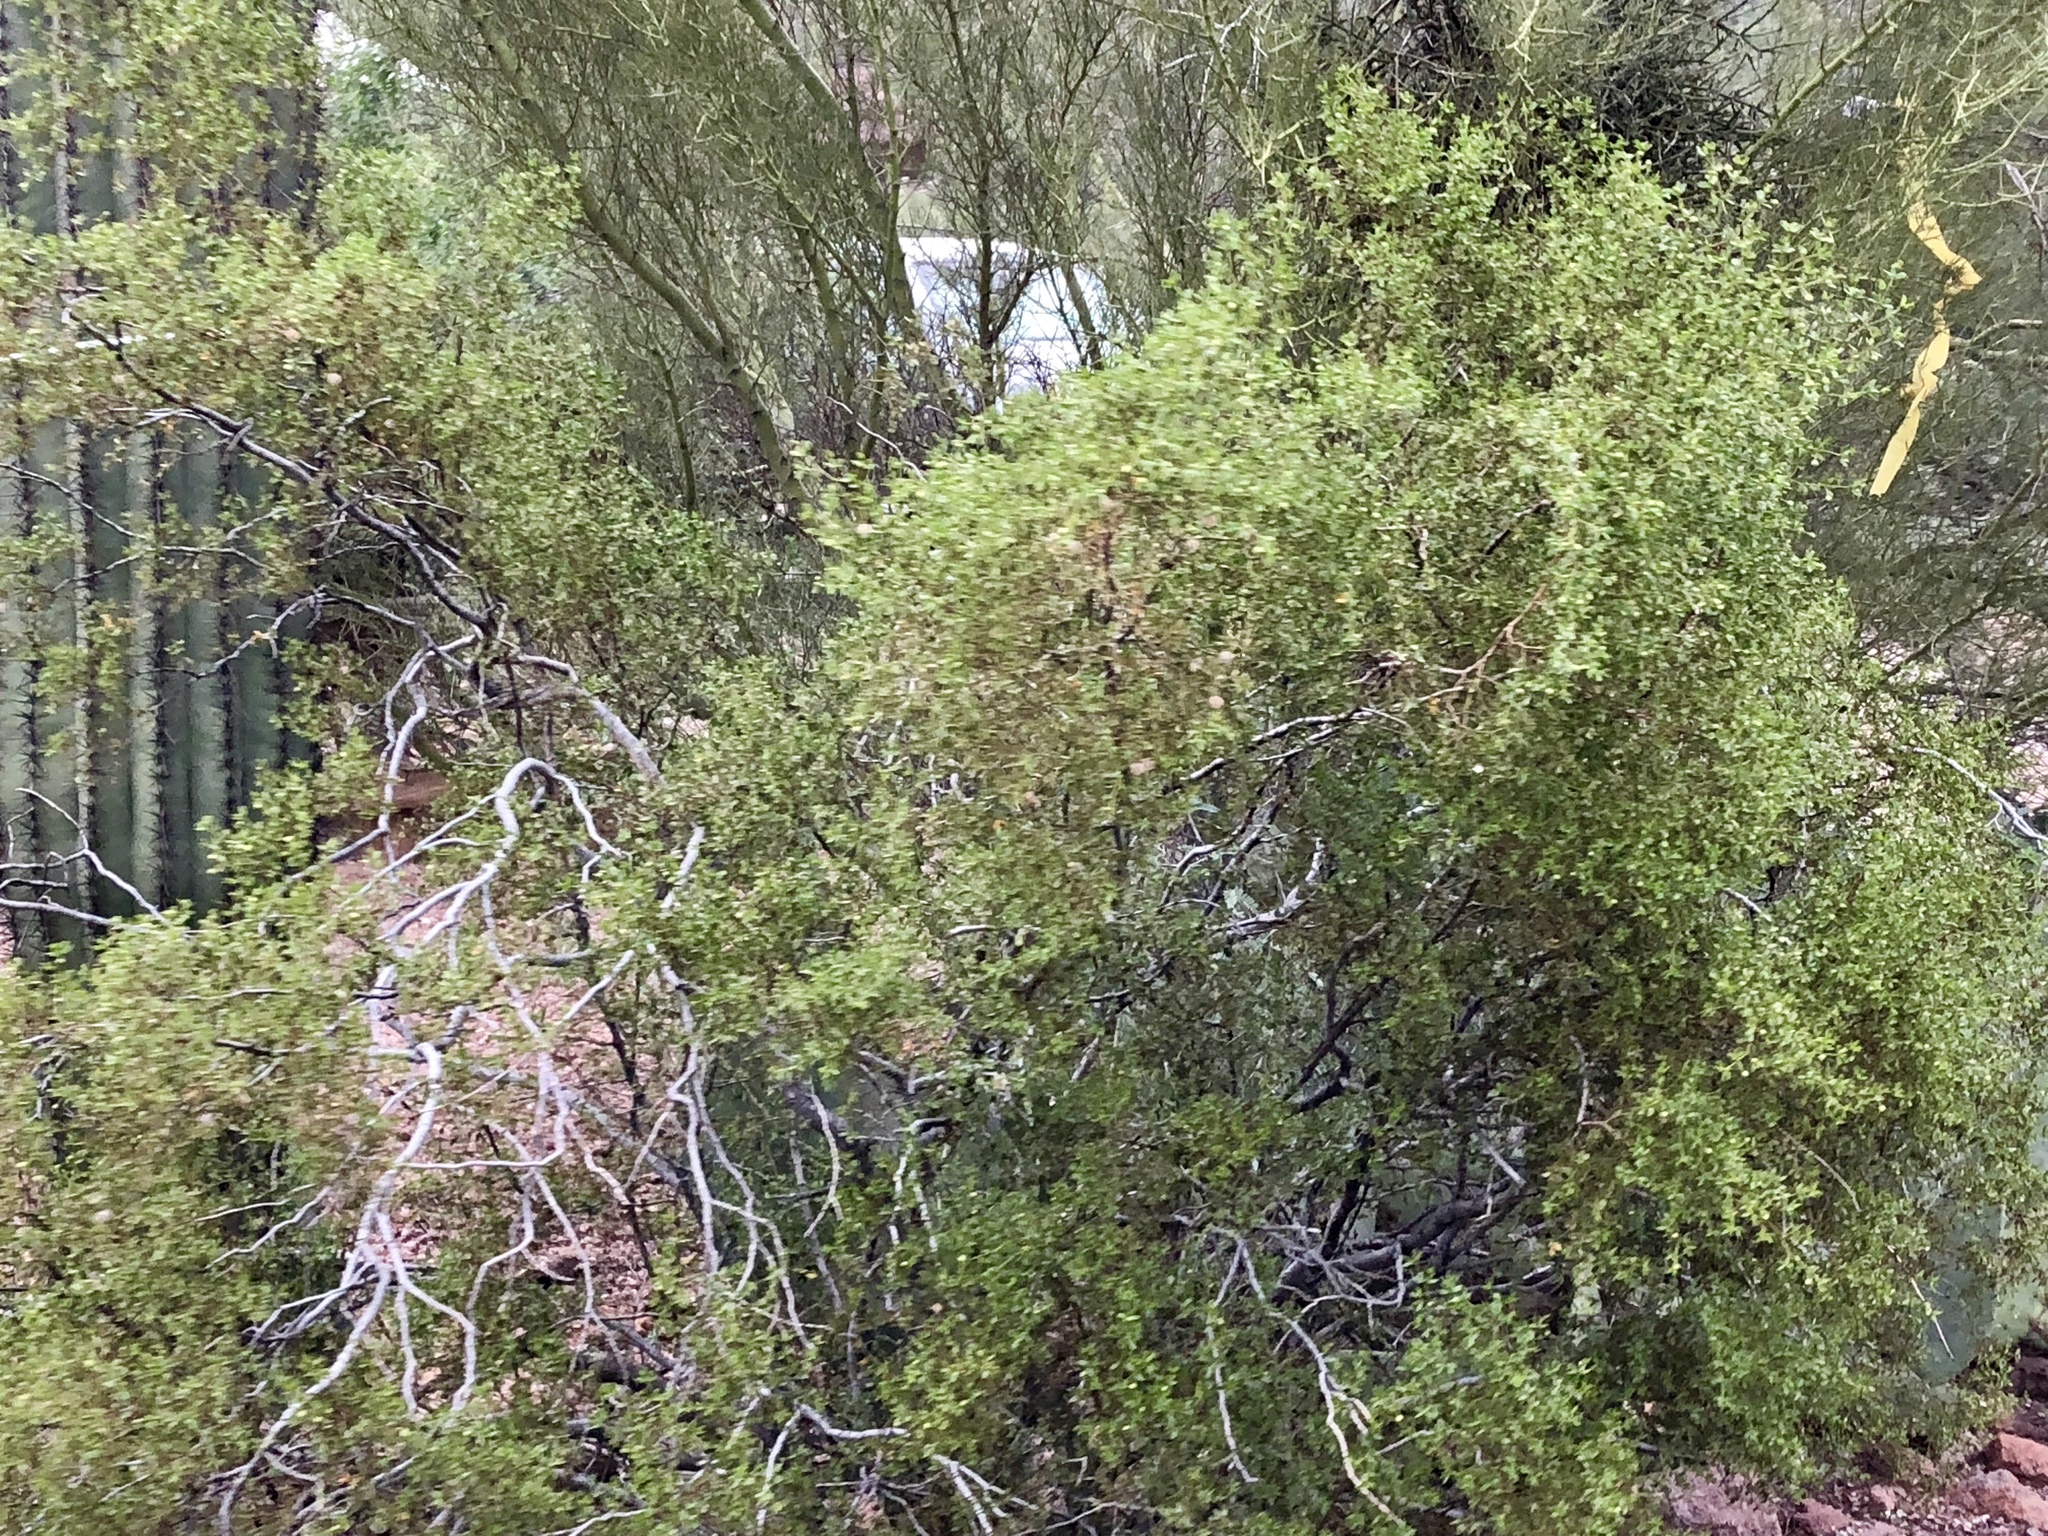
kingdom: Plantae
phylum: Tracheophyta
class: Magnoliopsida
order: Zygophyllales
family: Zygophyllaceae
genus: Larrea
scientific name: Larrea tridentata
